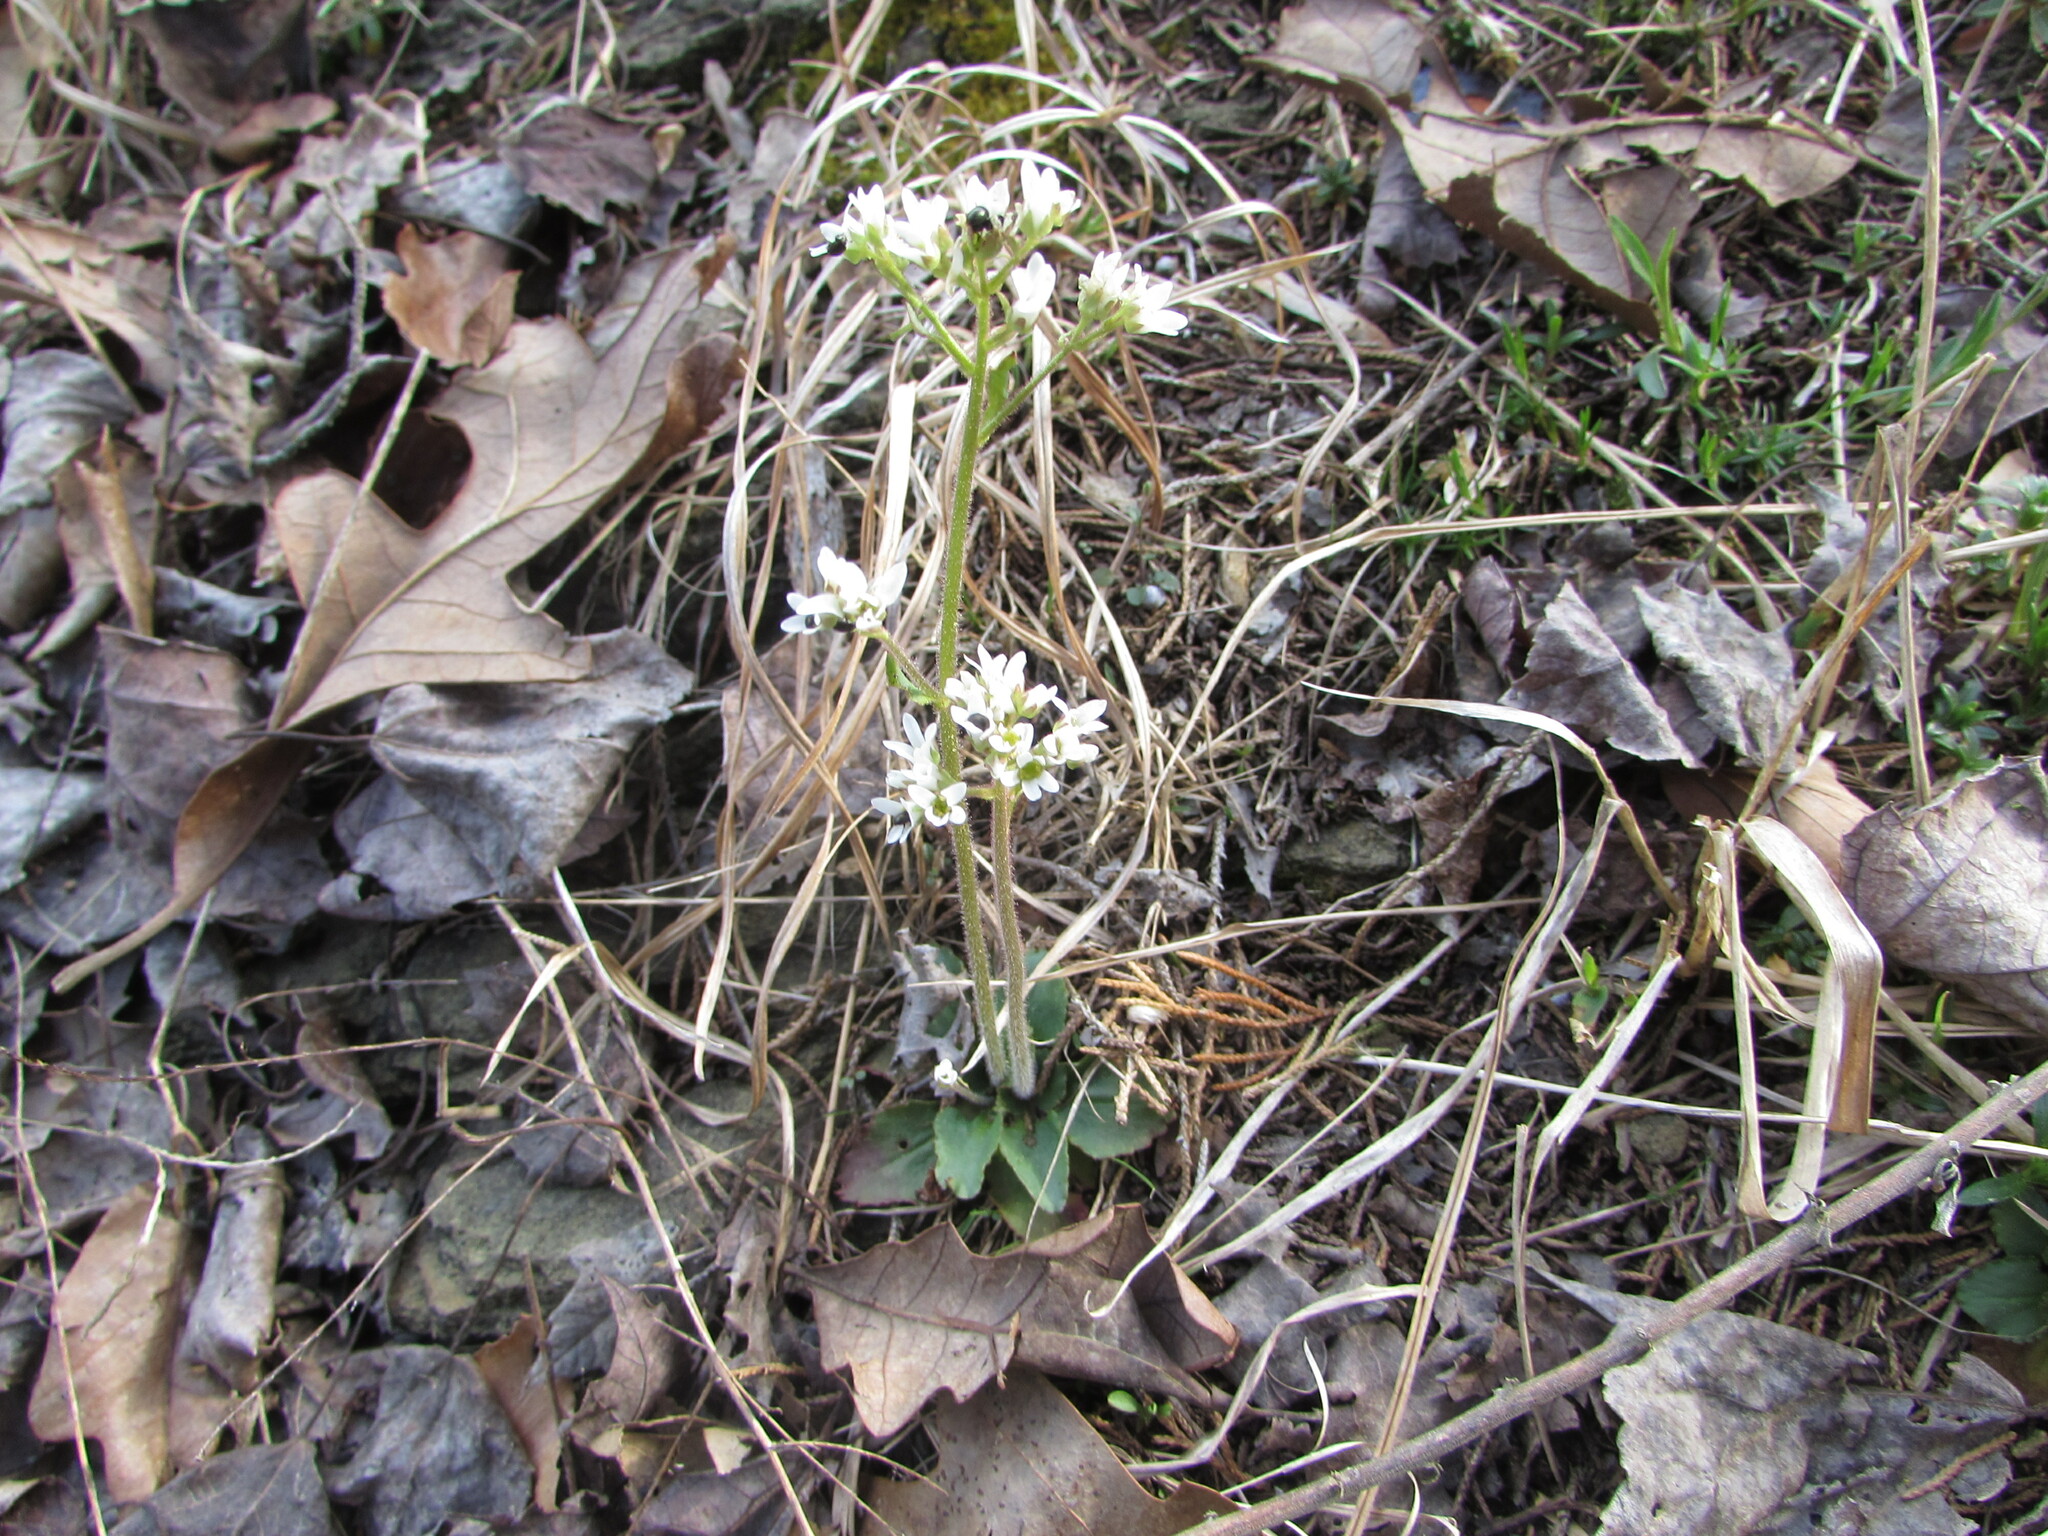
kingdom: Plantae
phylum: Tracheophyta
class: Magnoliopsida
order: Saxifragales
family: Saxifragaceae
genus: Micranthes
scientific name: Micranthes virginiensis
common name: Early saxifrage
